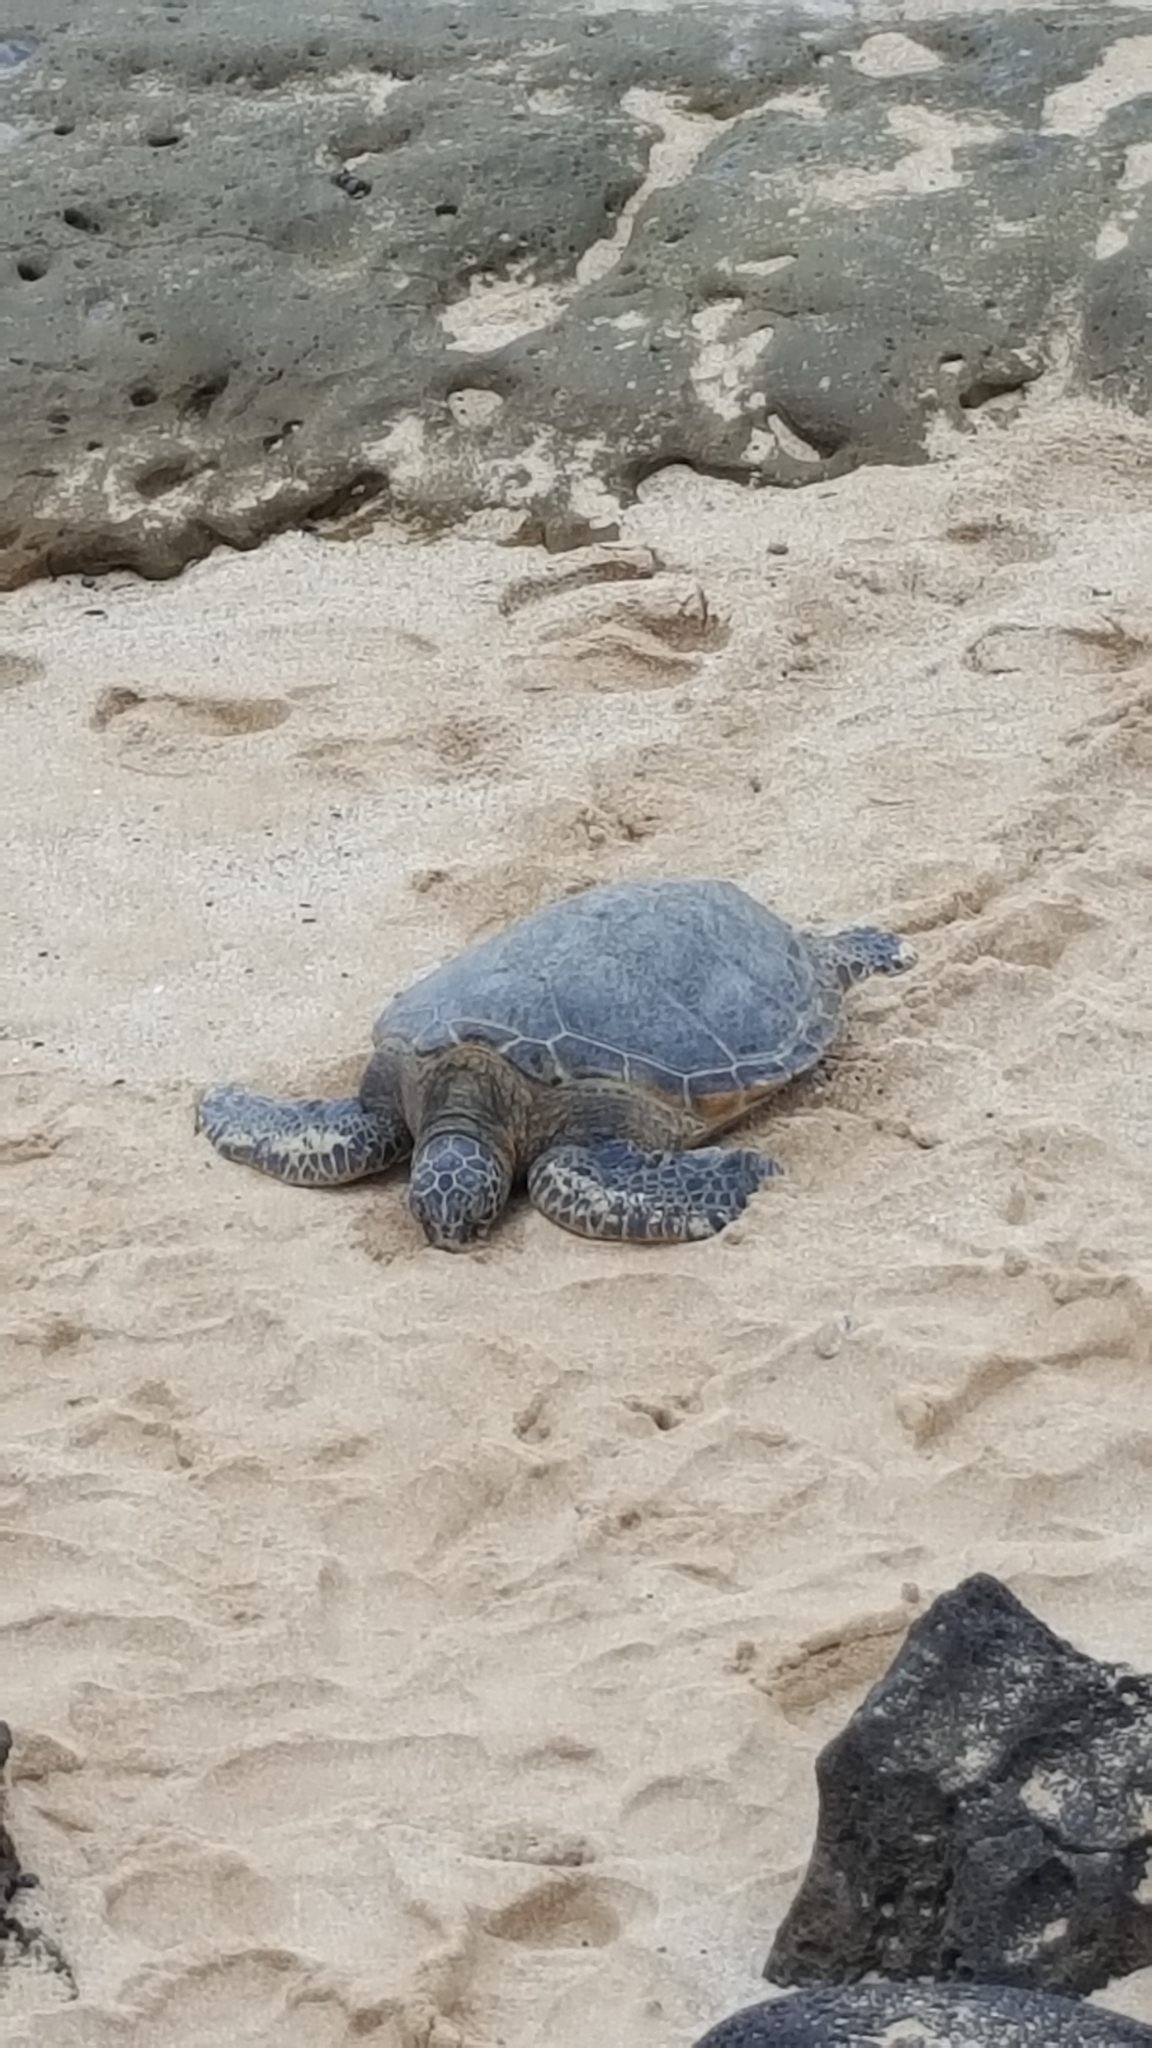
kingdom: Animalia
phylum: Chordata
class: Testudines
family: Cheloniidae
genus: Chelonia
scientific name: Chelonia mydas
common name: Green turtle
